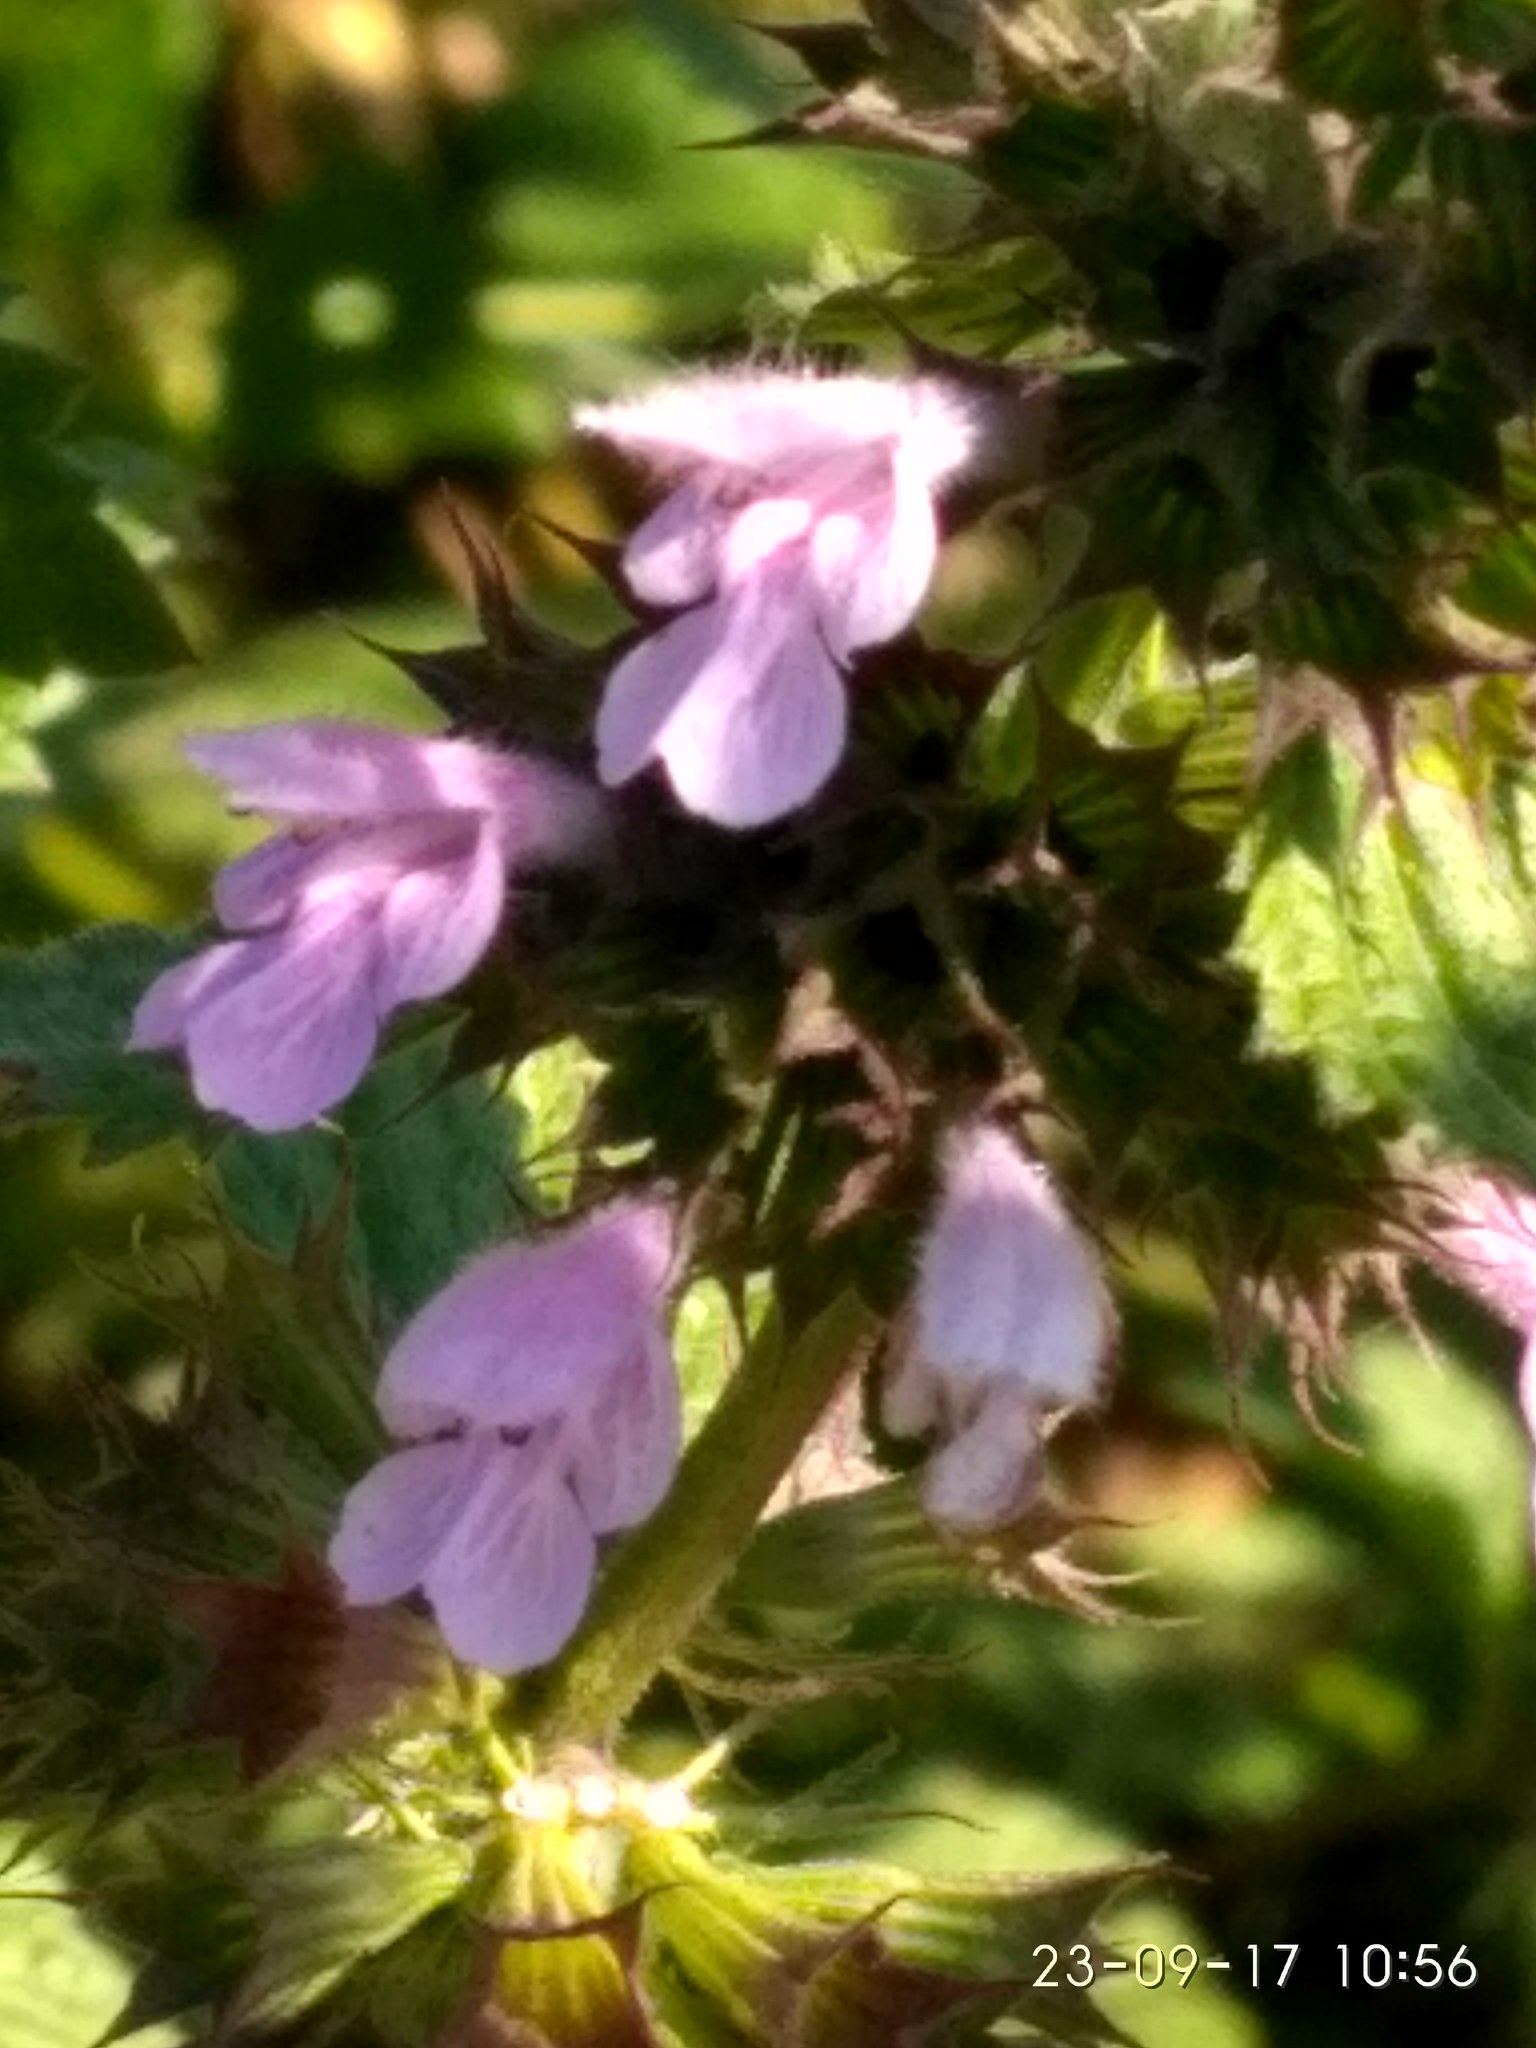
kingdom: Plantae
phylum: Tracheophyta
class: Magnoliopsida
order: Lamiales
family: Lamiaceae
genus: Ballota
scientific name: Ballota nigra
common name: Black horehound
